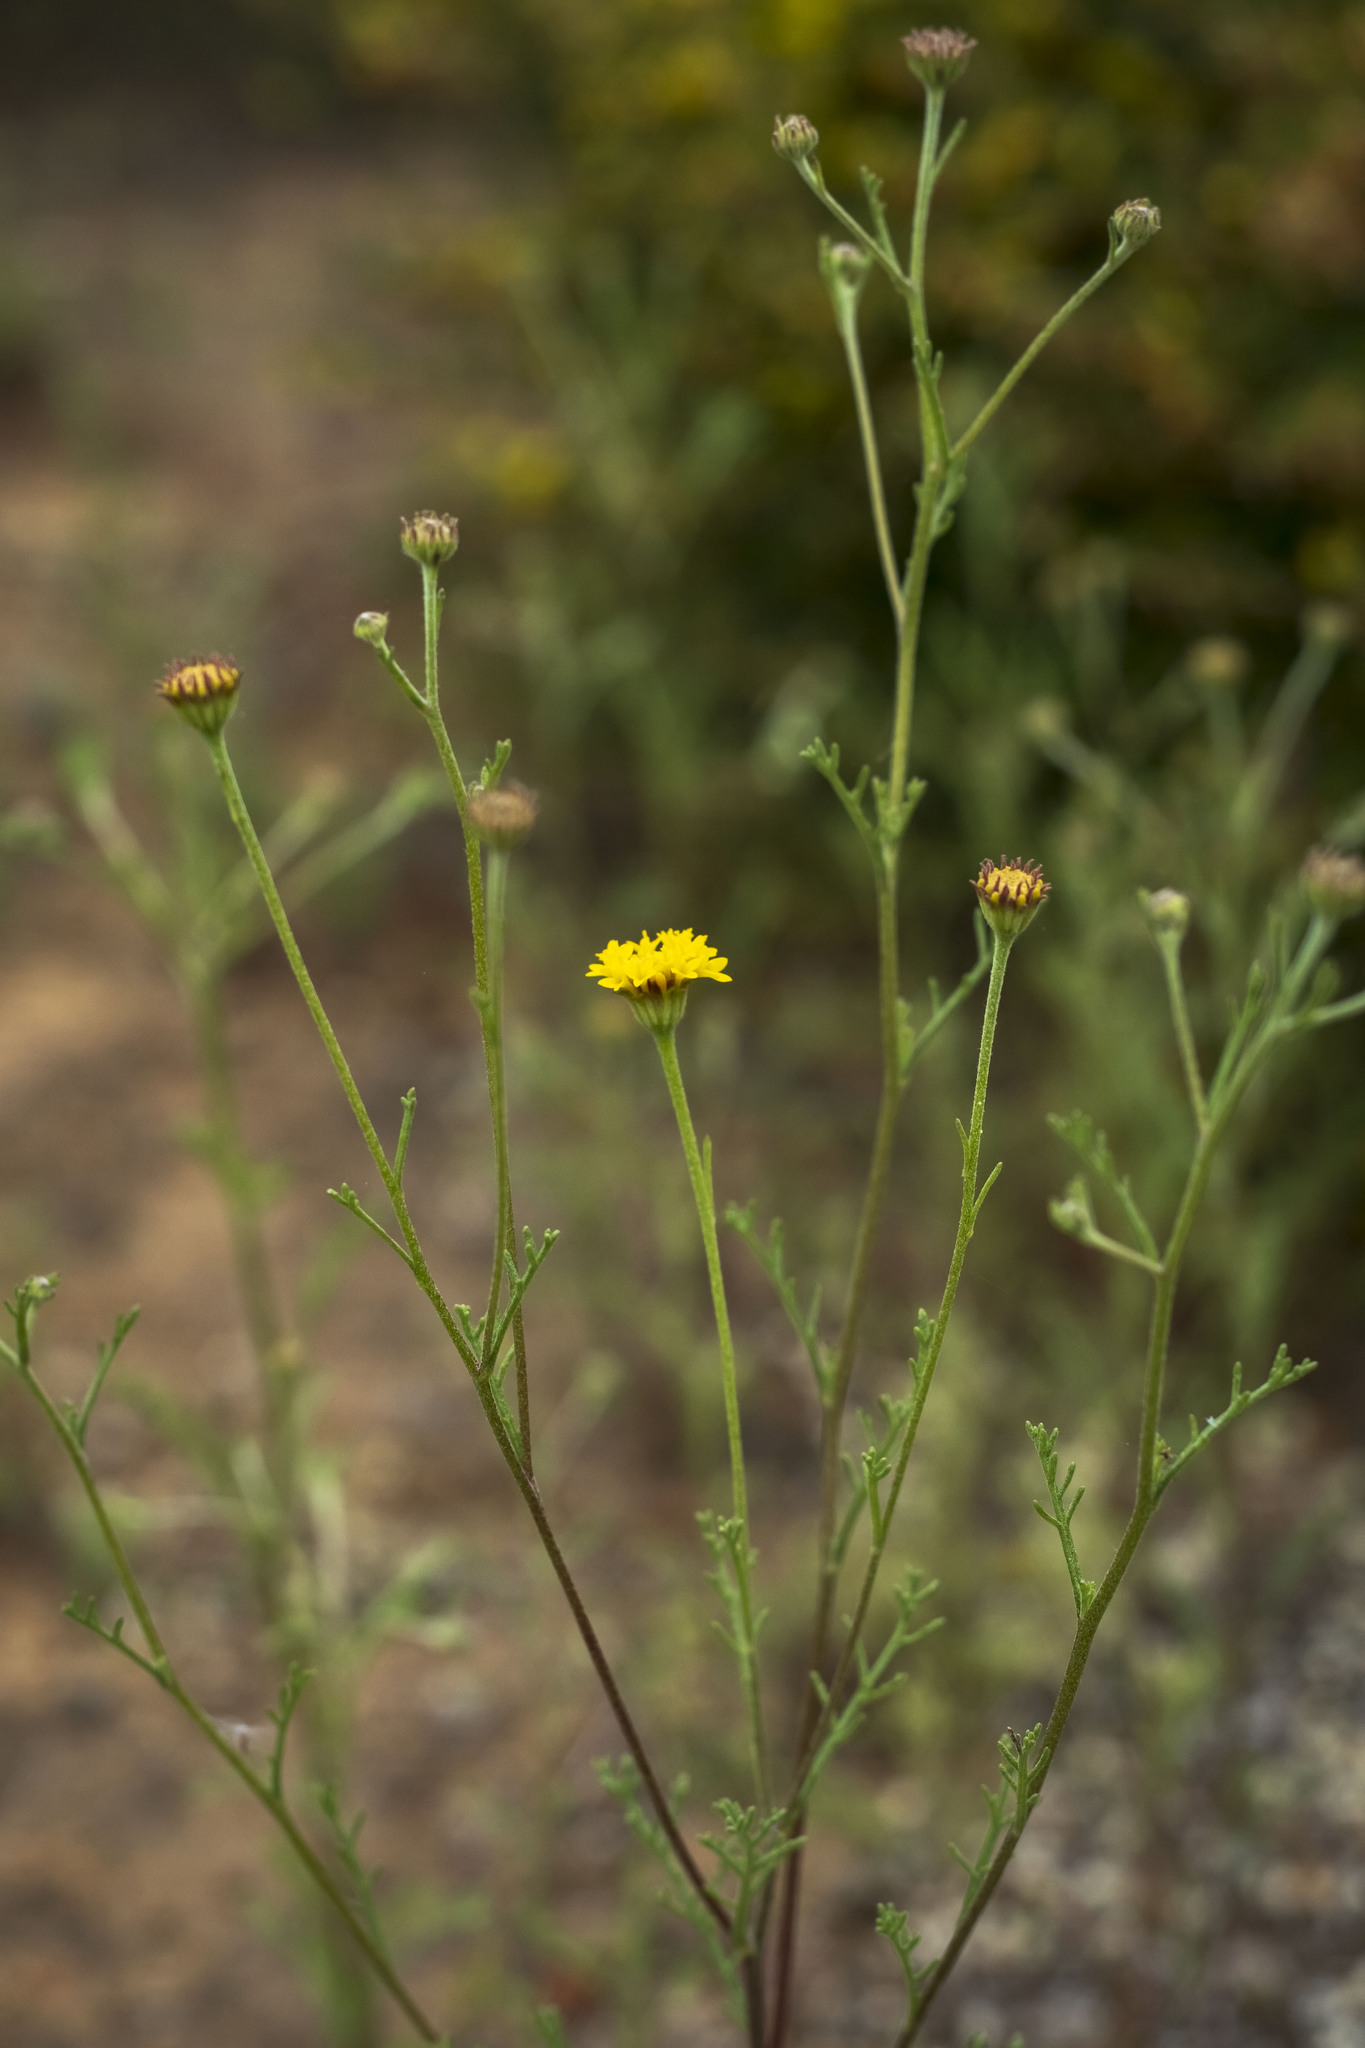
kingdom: Plantae
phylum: Tracheophyta
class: Magnoliopsida
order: Asterales
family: Asteraceae
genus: Chaenactis
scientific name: Chaenactis glabriuscula
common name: Yellow pincushion
